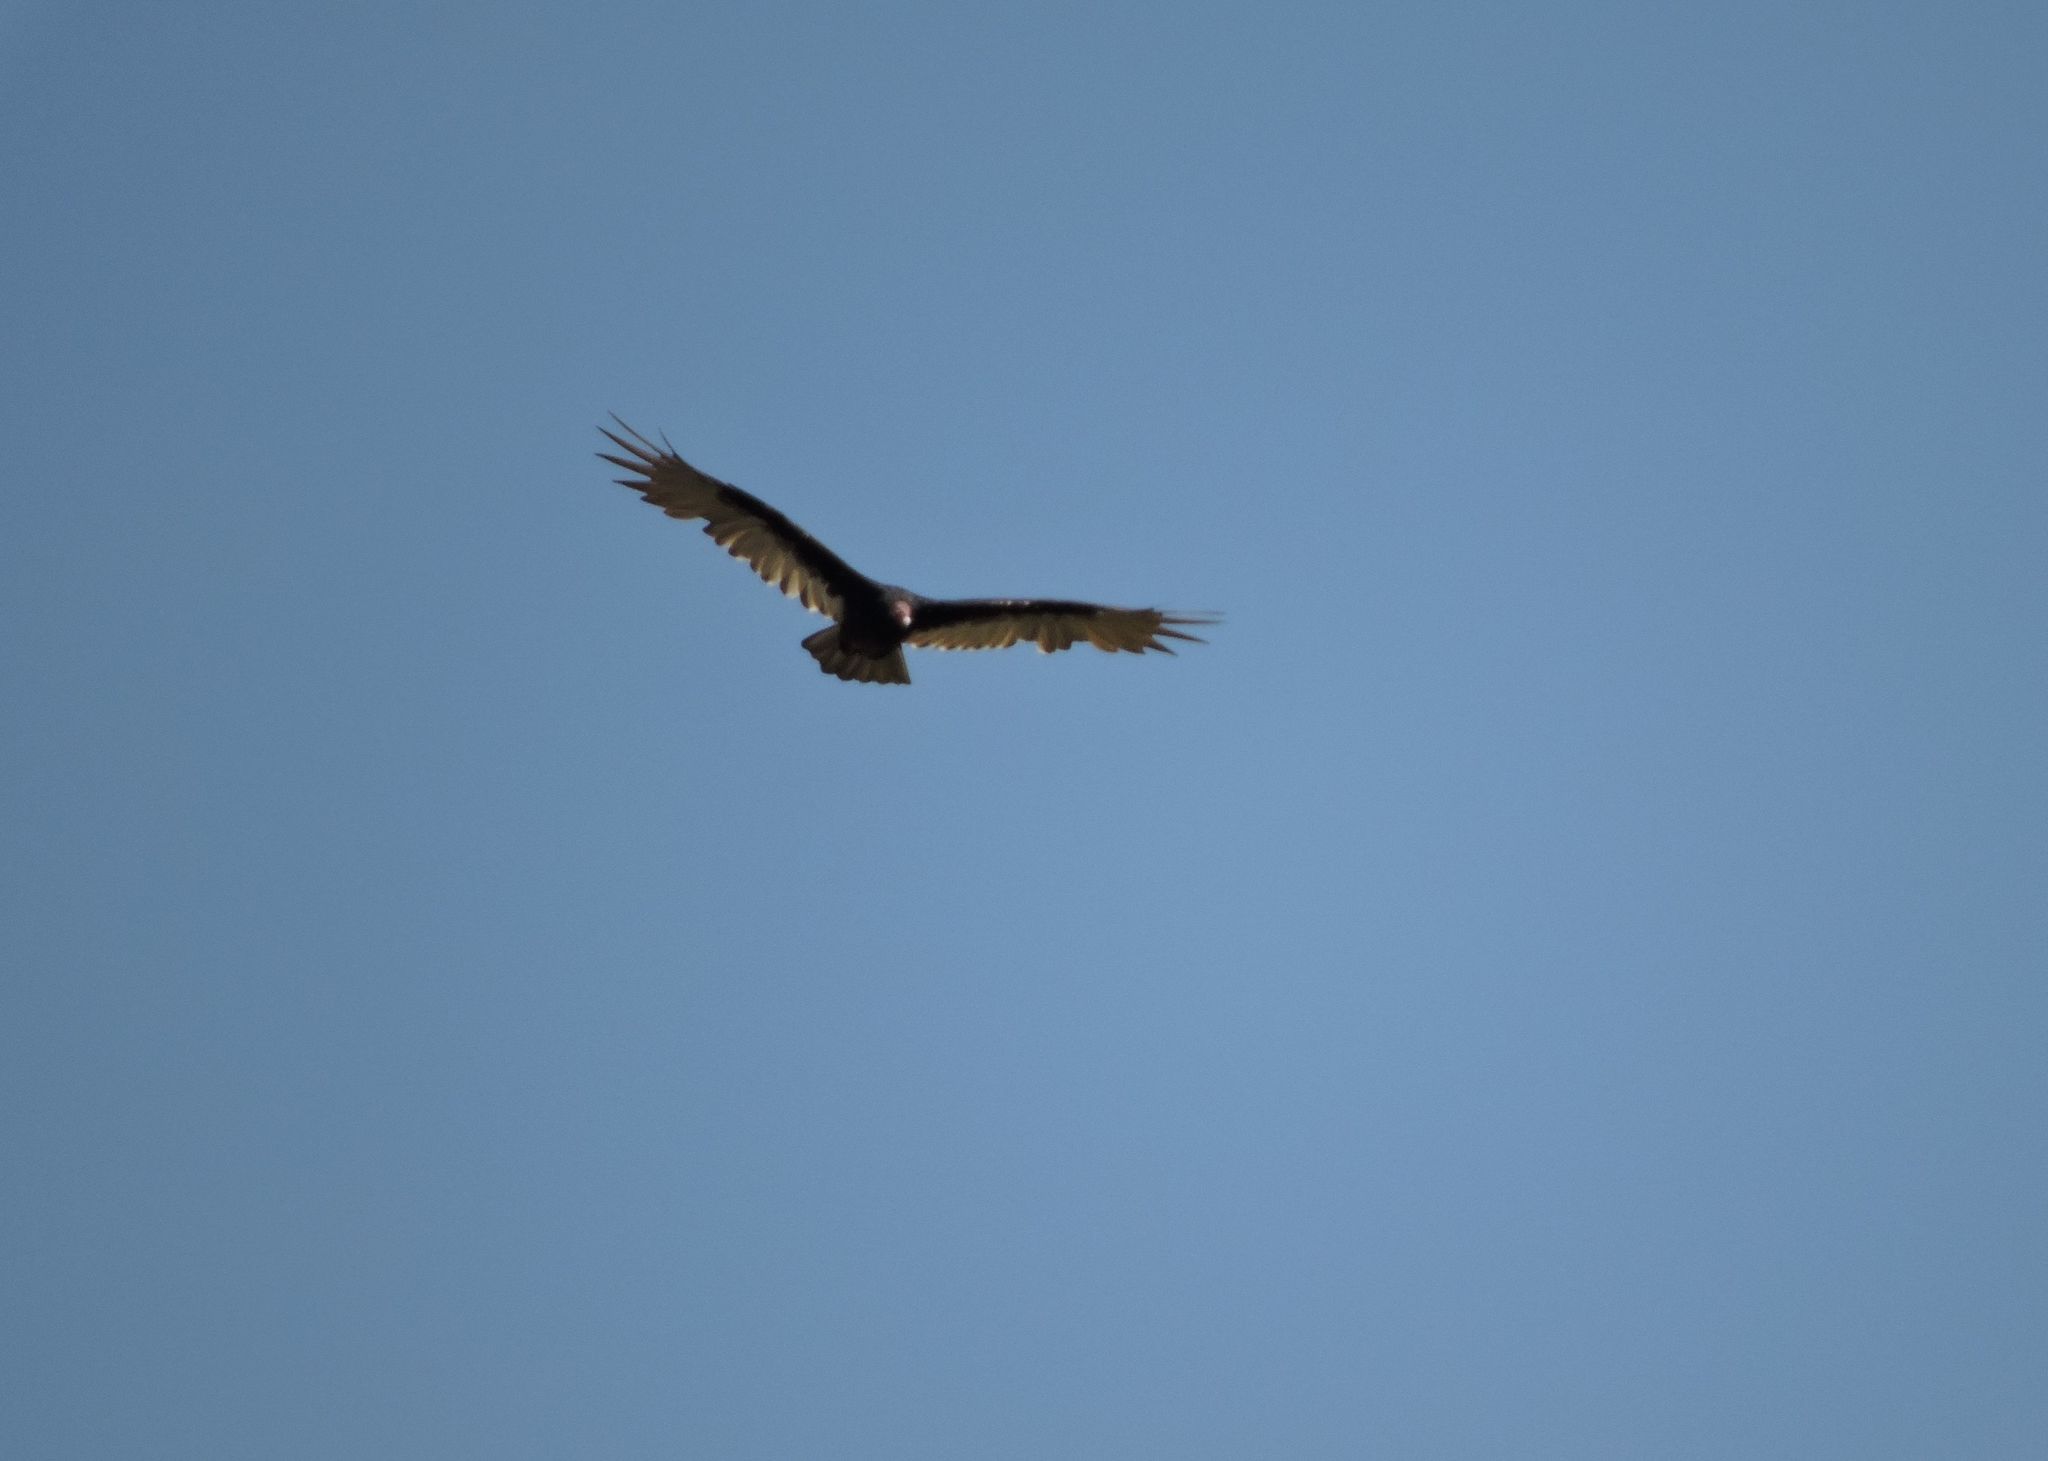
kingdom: Animalia
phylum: Chordata
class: Aves
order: Accipitriformes
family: Cathartidae
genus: Cathartes
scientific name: Cathartes aura
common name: Turkey vulture
